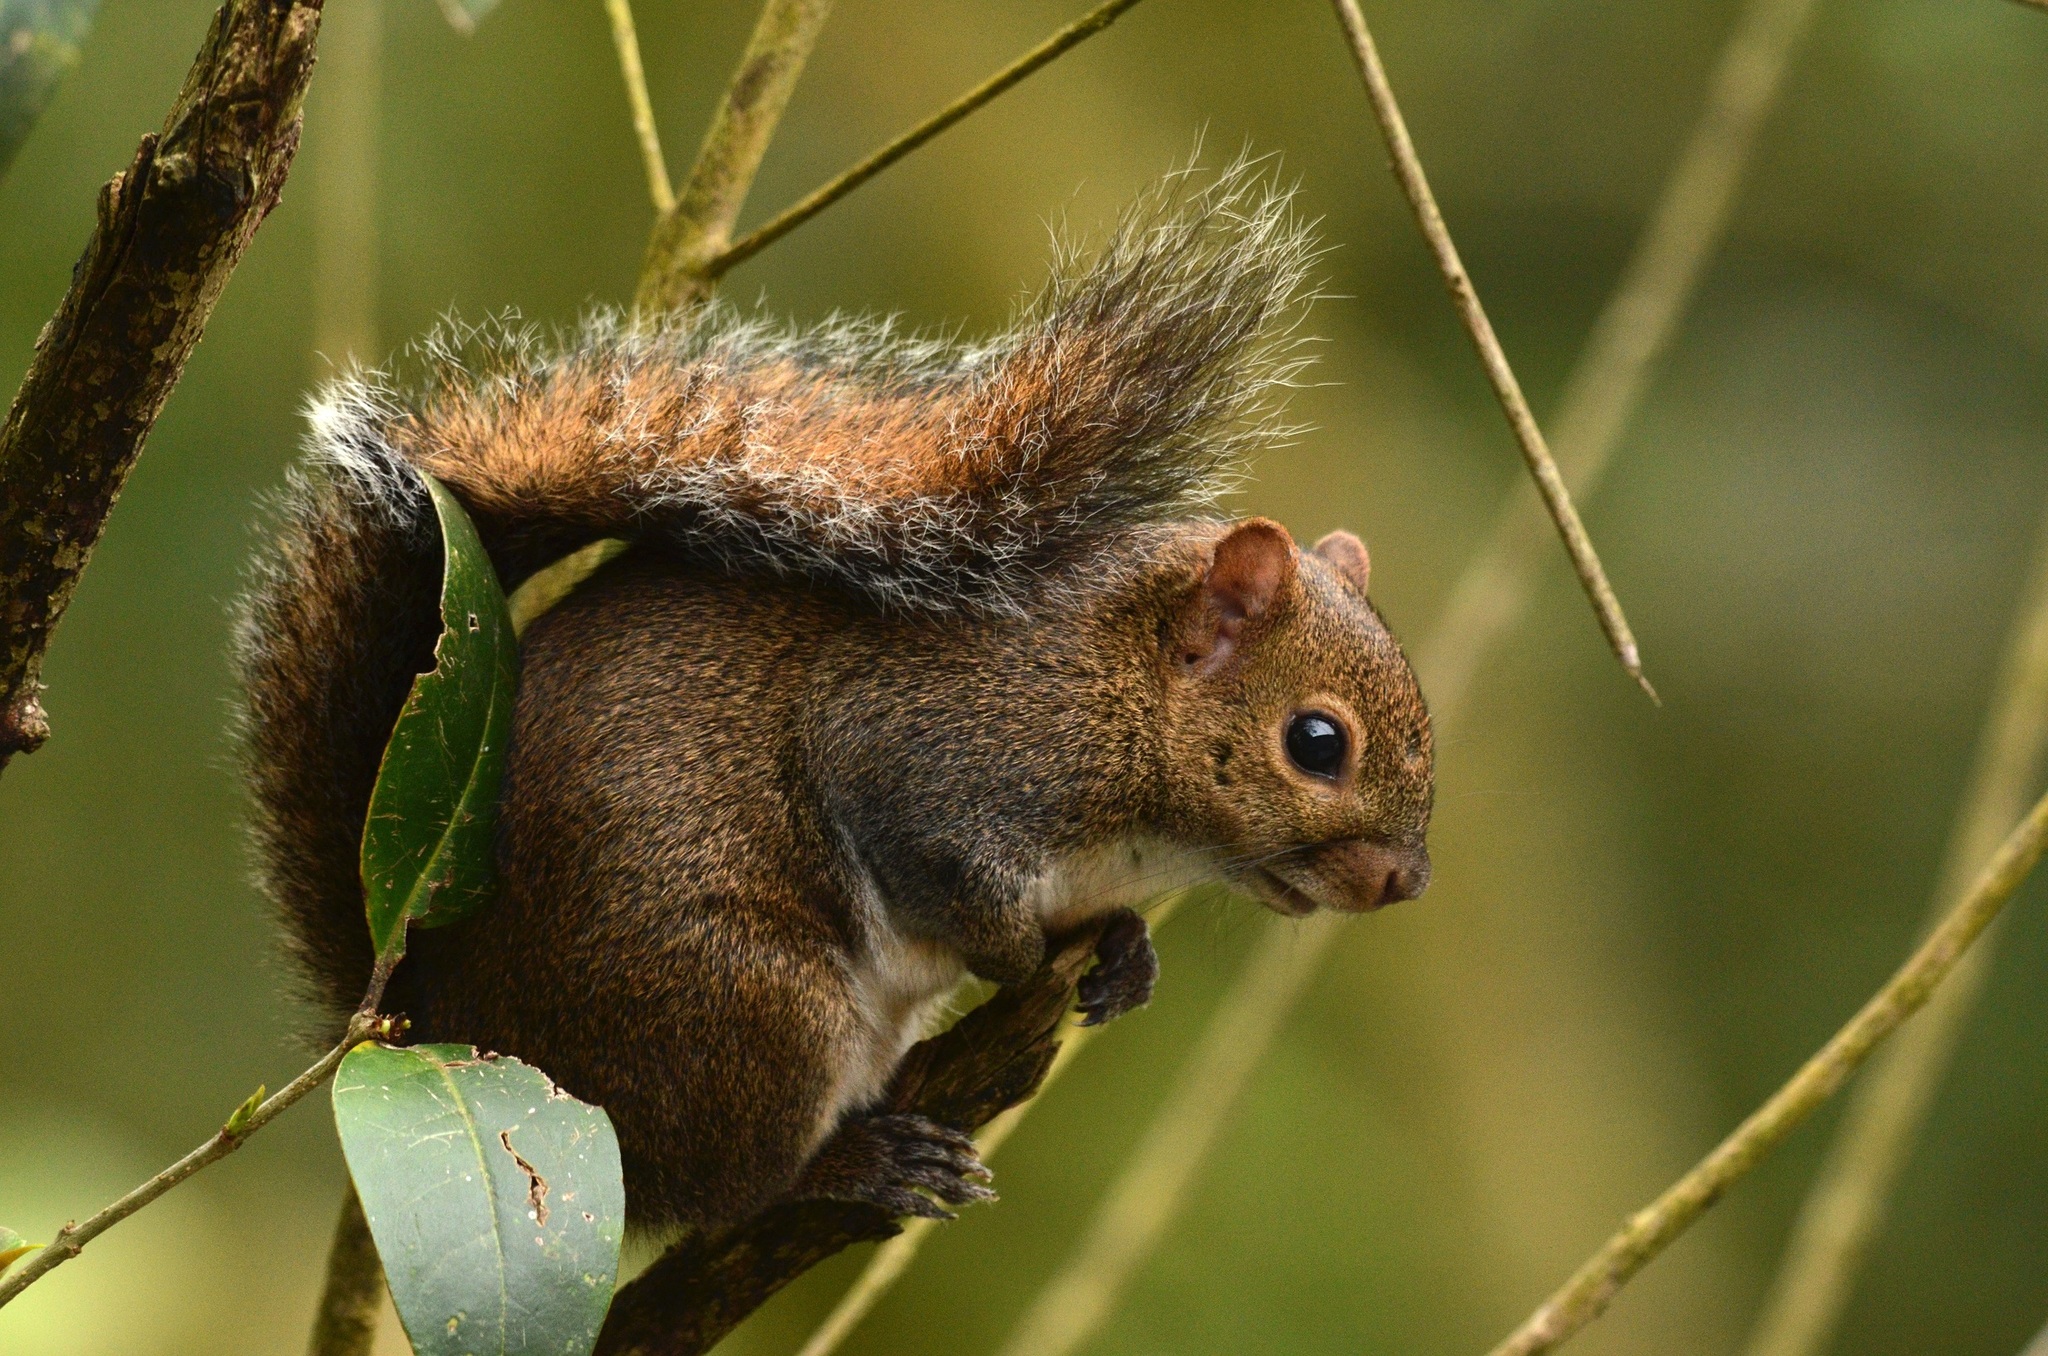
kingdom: Animalia
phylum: Chordata
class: Mammalia
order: Rodentia
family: Sciuridae
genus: Sciurus
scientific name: Sciurus deppei
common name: Deppe's squirrel
